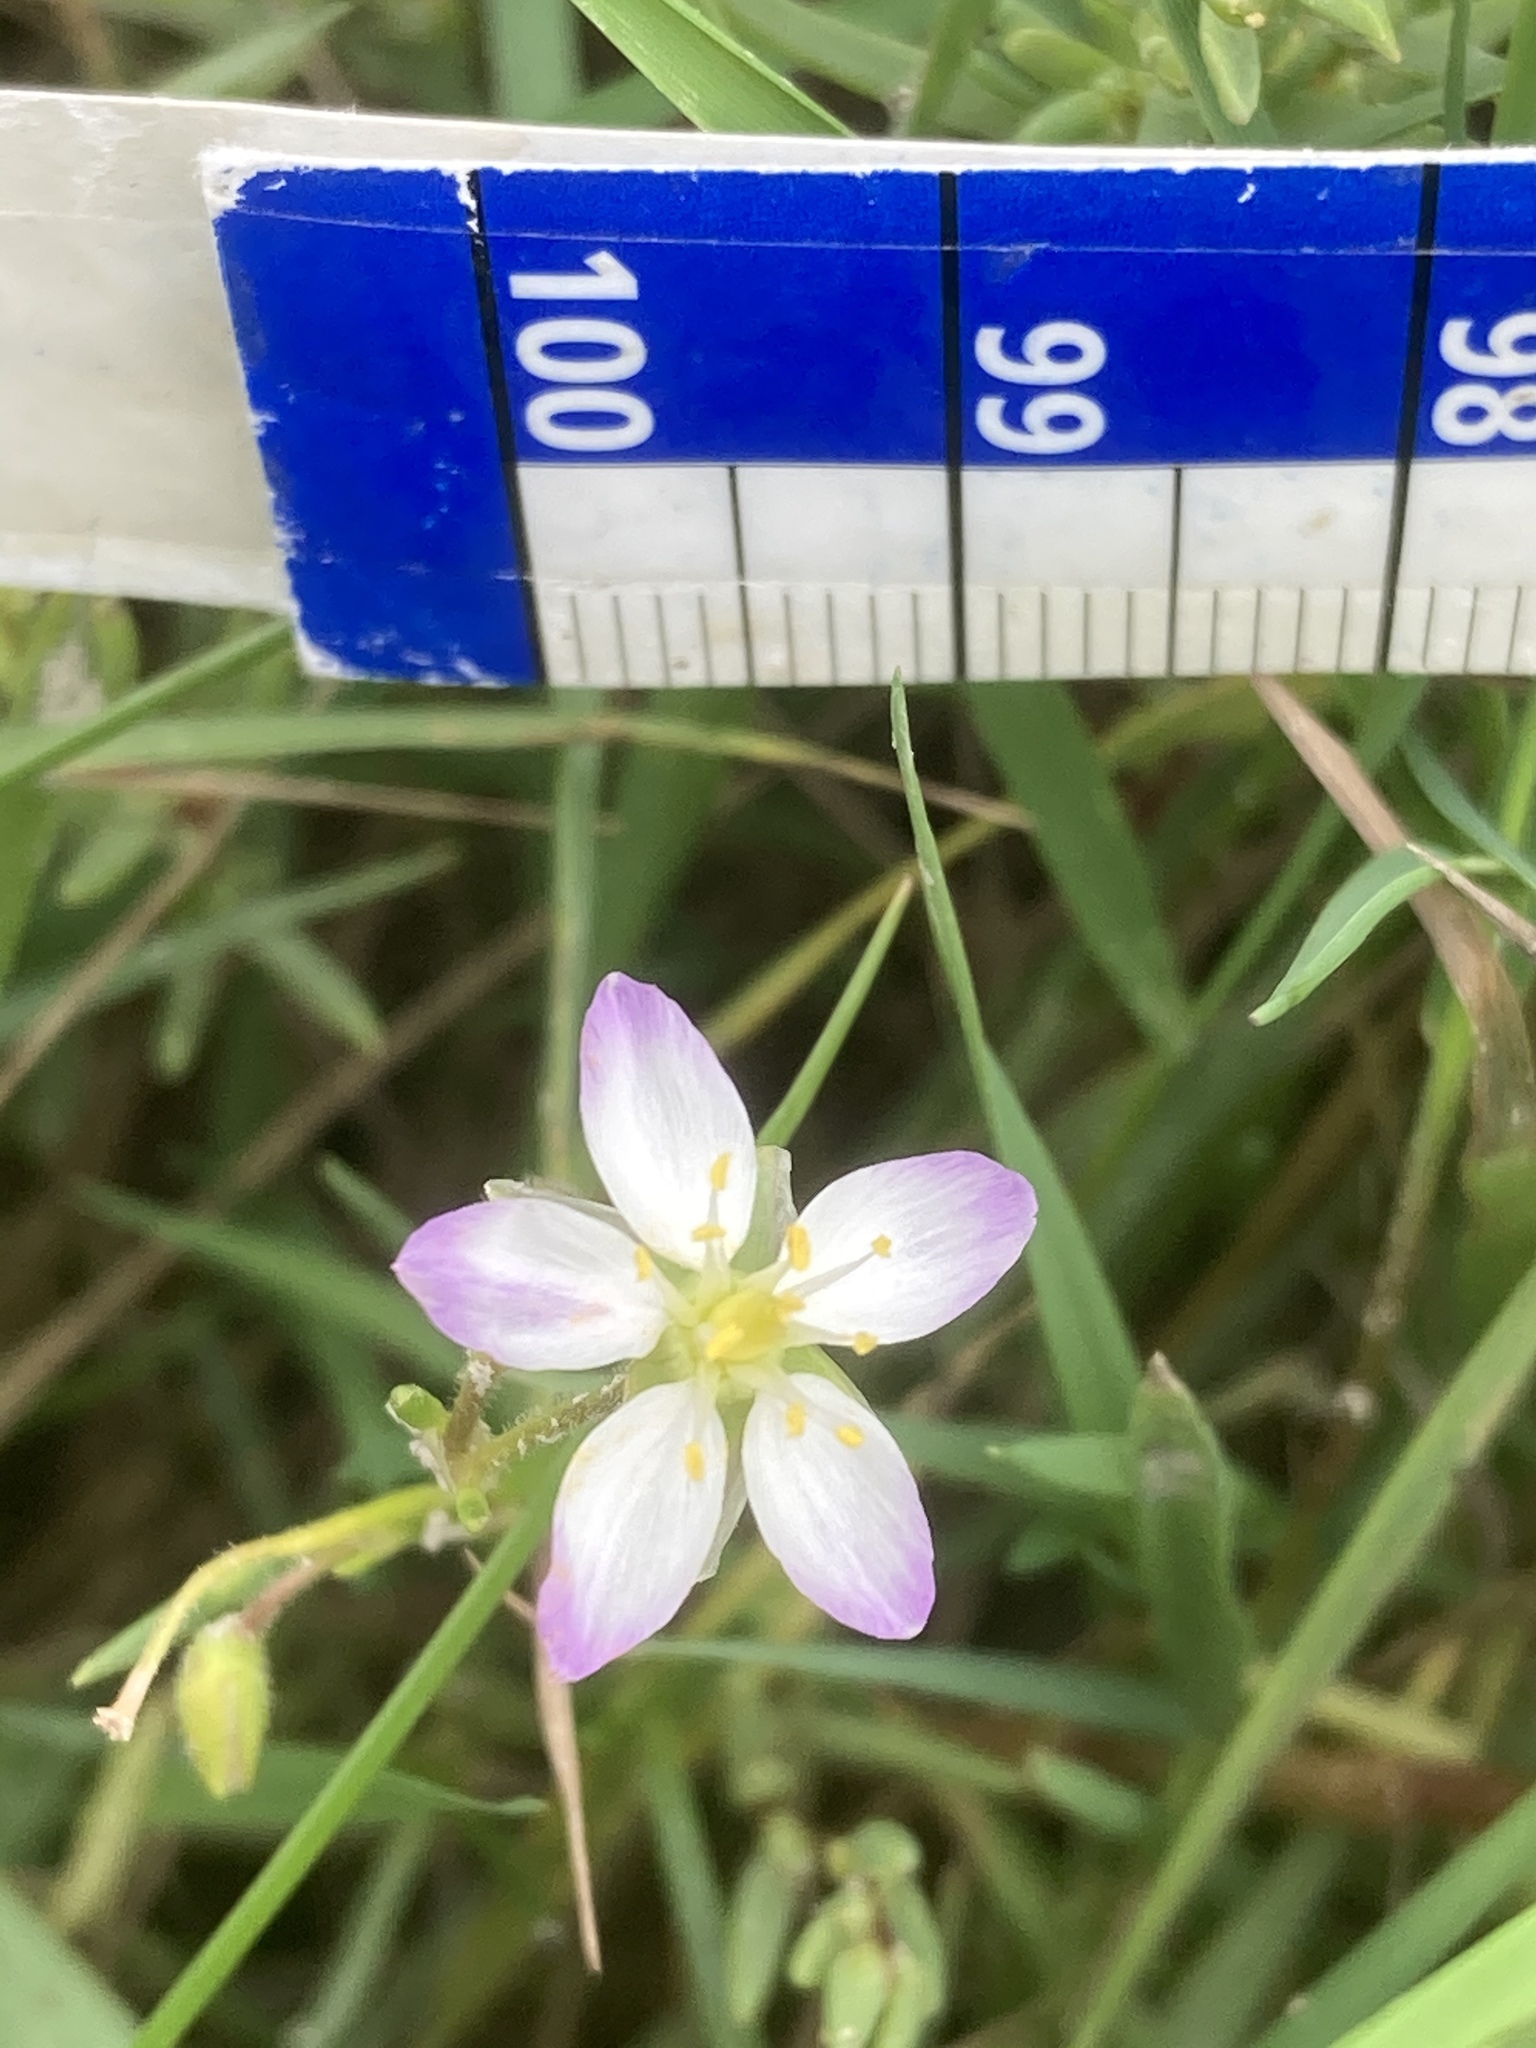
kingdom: Plantae
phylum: Tracheophyta
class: Magnoliopsida
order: Caryophyllales
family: Caryophyllaceae
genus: Spergularia
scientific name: Spergularia media
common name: Greater sea-spurrey
